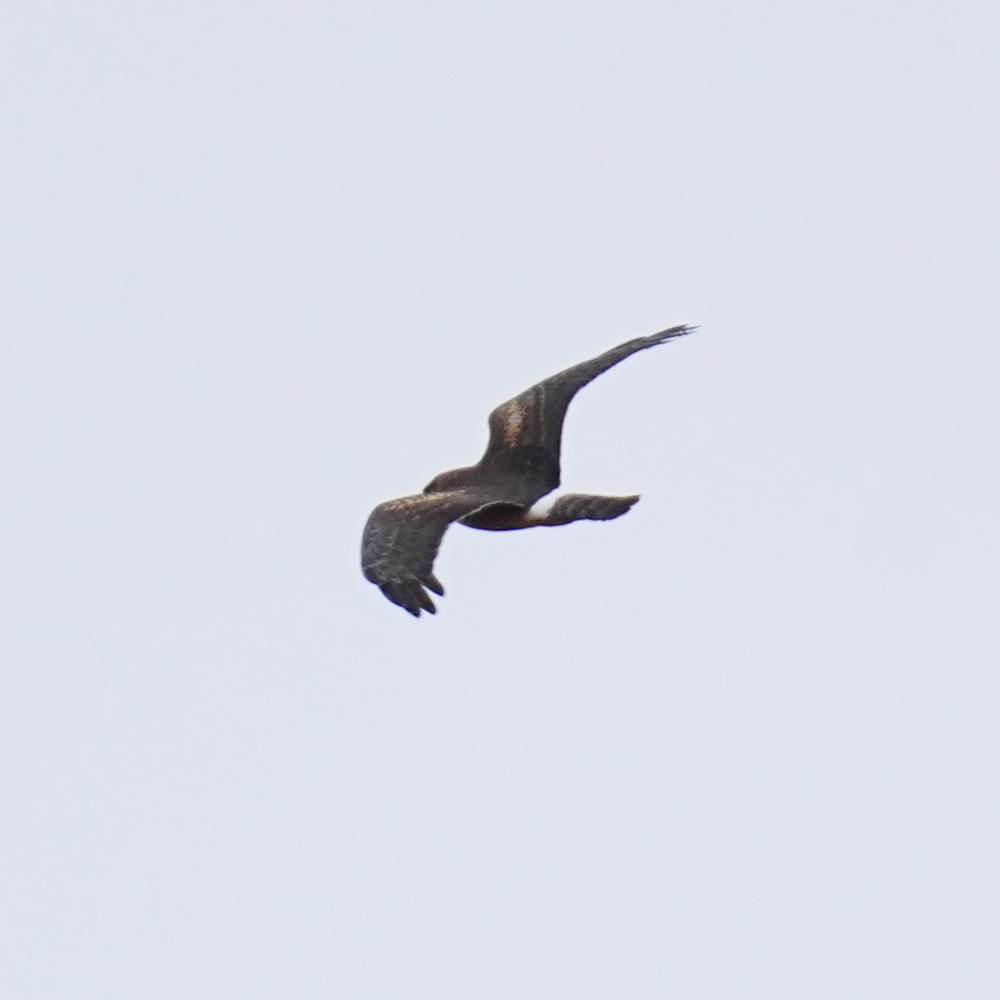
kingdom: Animalia
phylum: Chordata
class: Aves
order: Accipitriformes
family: Accipitridae
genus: Circus
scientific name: Circus cyaneus
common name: Hen harrier
